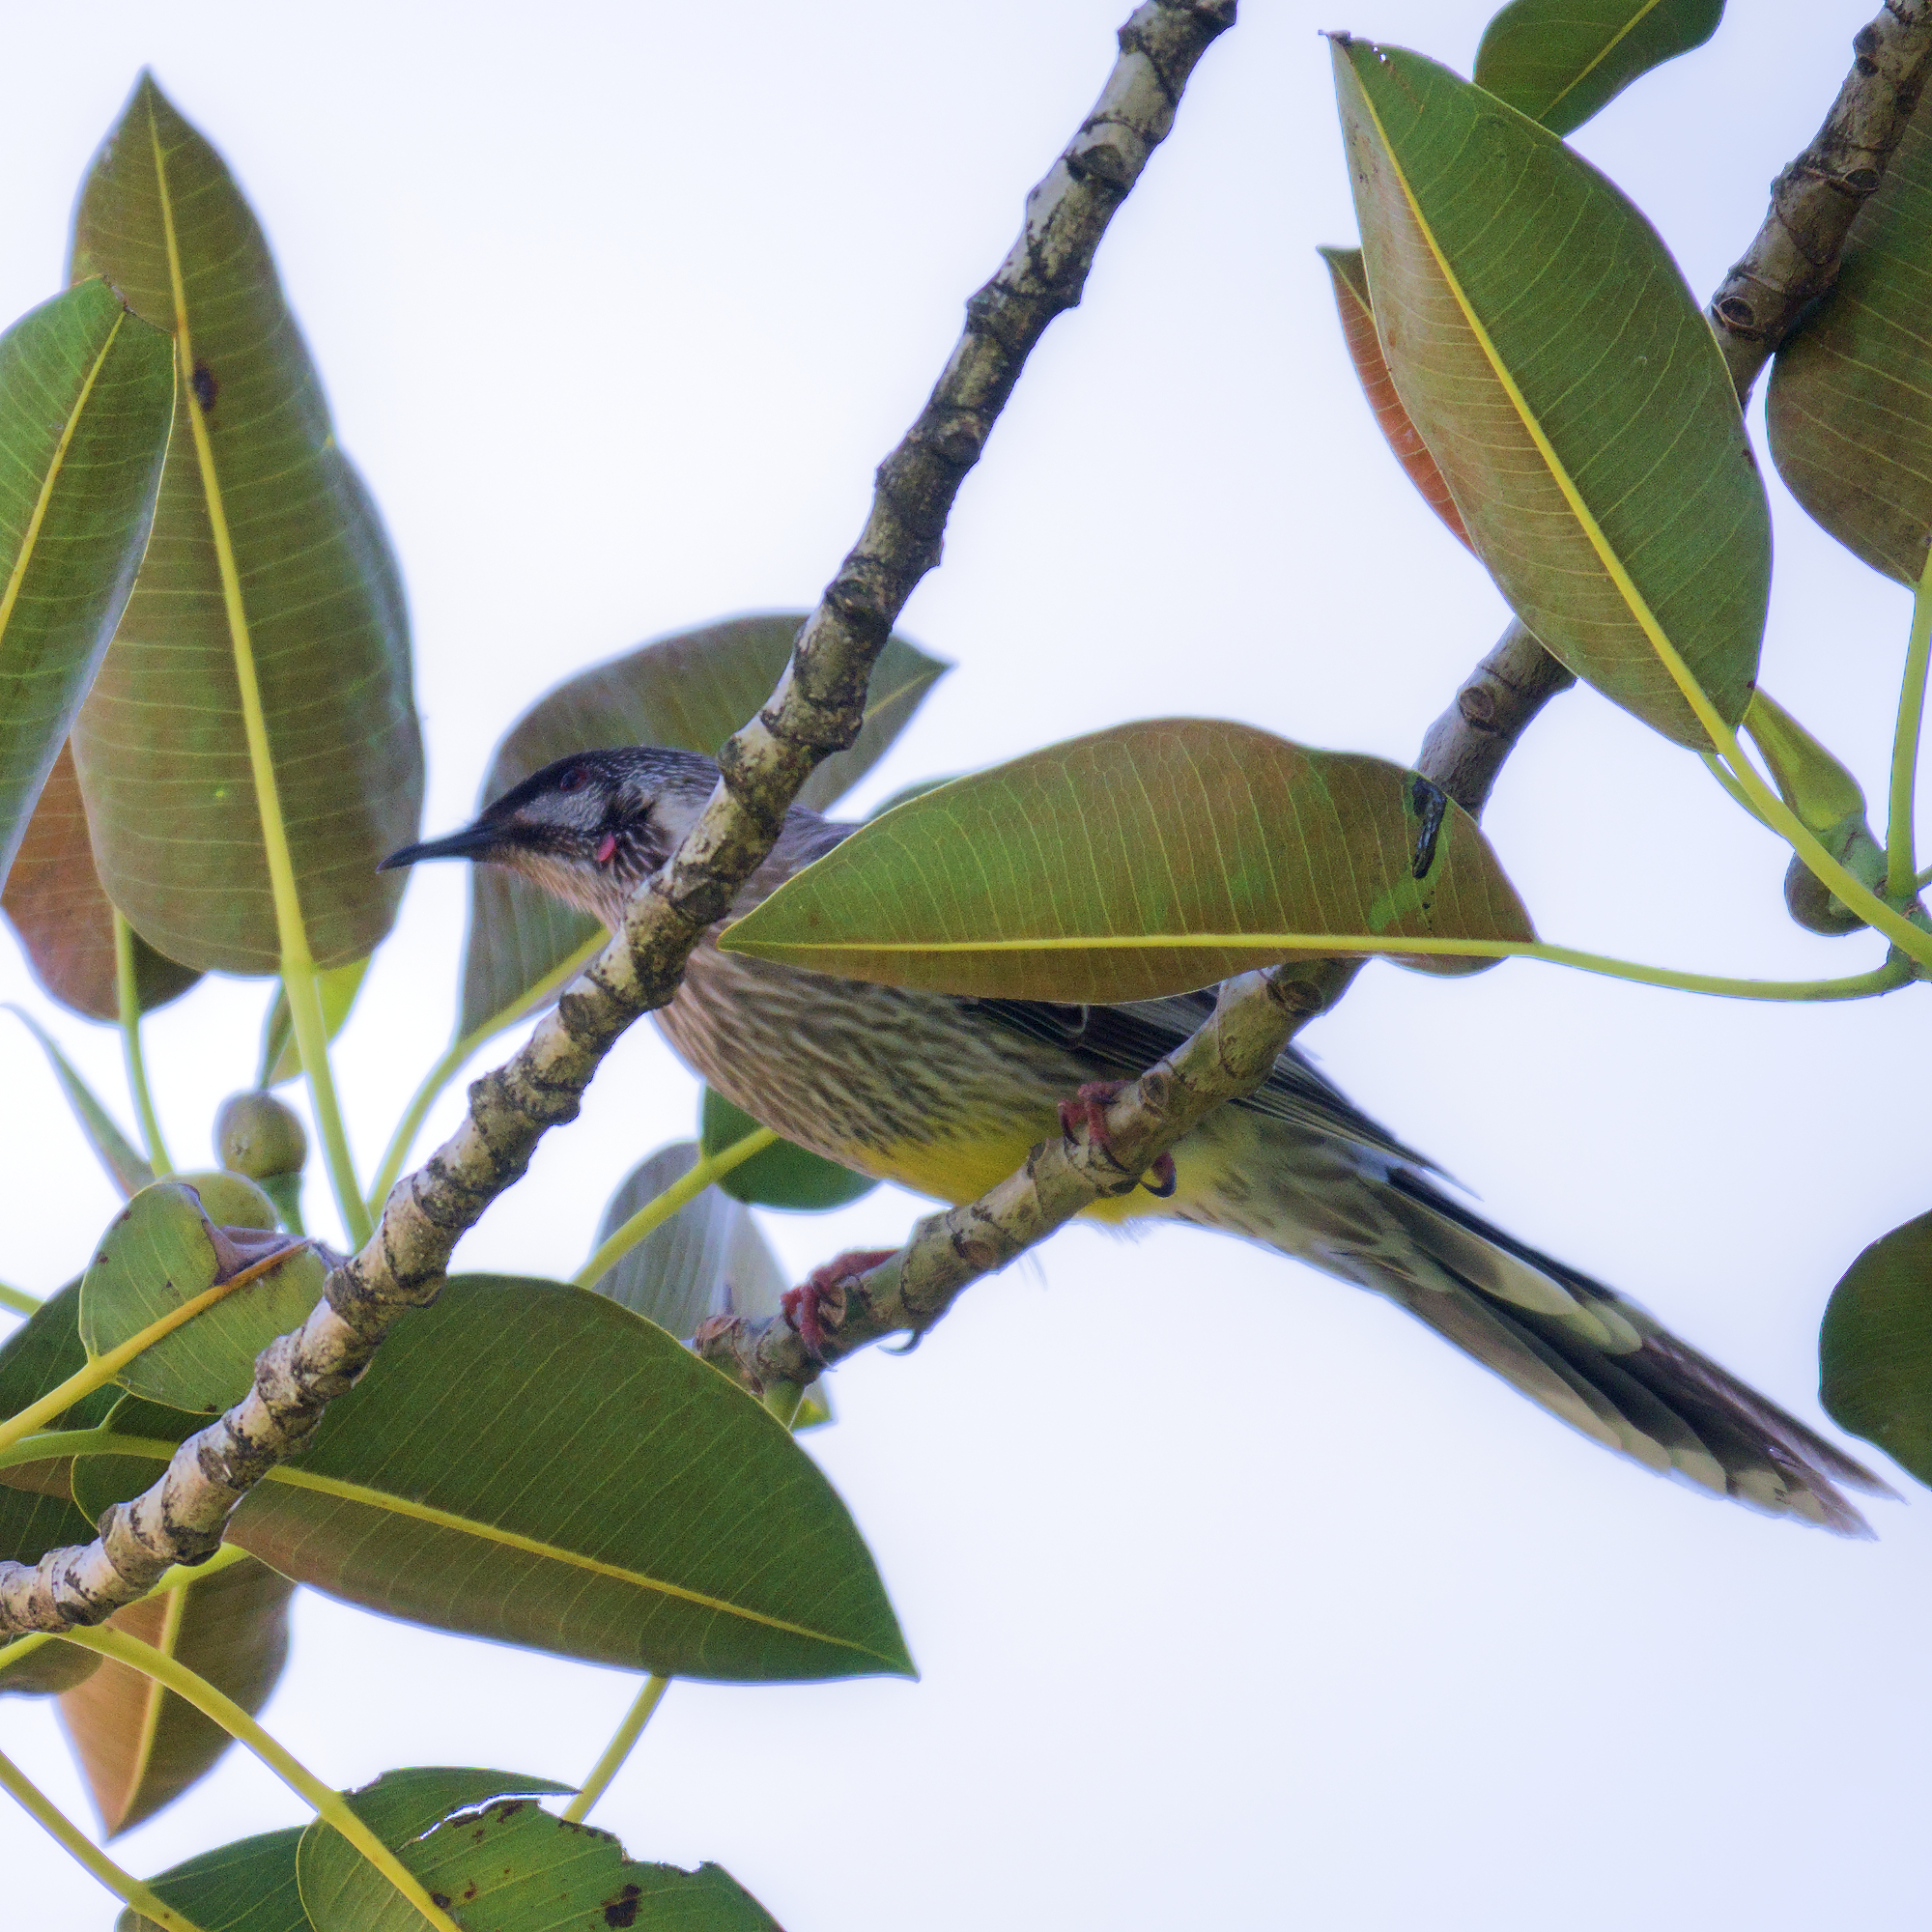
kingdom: Animalia
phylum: Chordata
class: Aves
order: Passeriformes
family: Meliphagidae
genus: Anthochaera
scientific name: Anthochaera carunculata
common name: Red wattlebird
